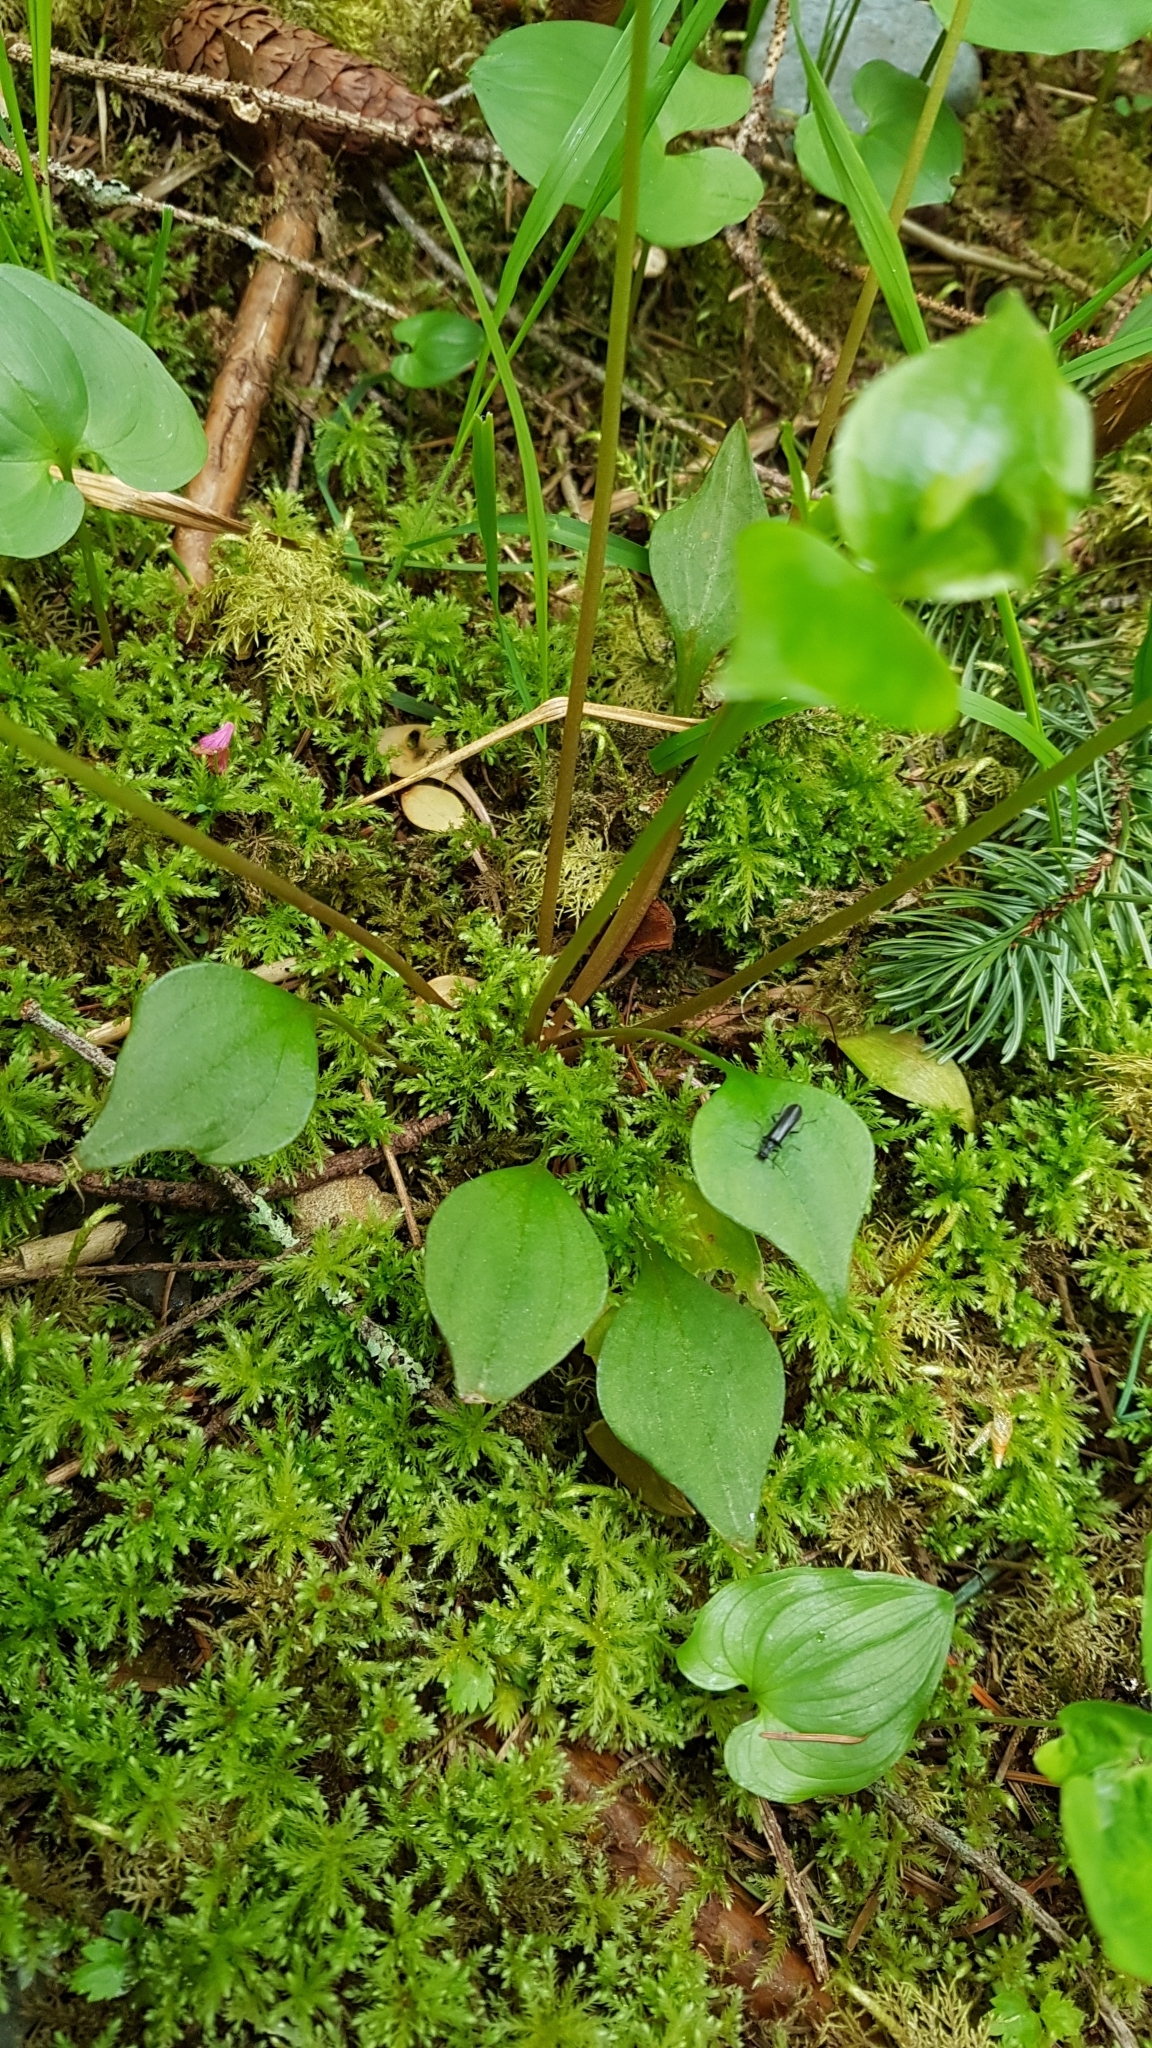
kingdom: Plantae
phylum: Tracheophyta
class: Magnoliopsida
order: Caryophyllales
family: Montiaceae
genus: Claytonia
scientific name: Claytonia sibirica
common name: Pink purslane
